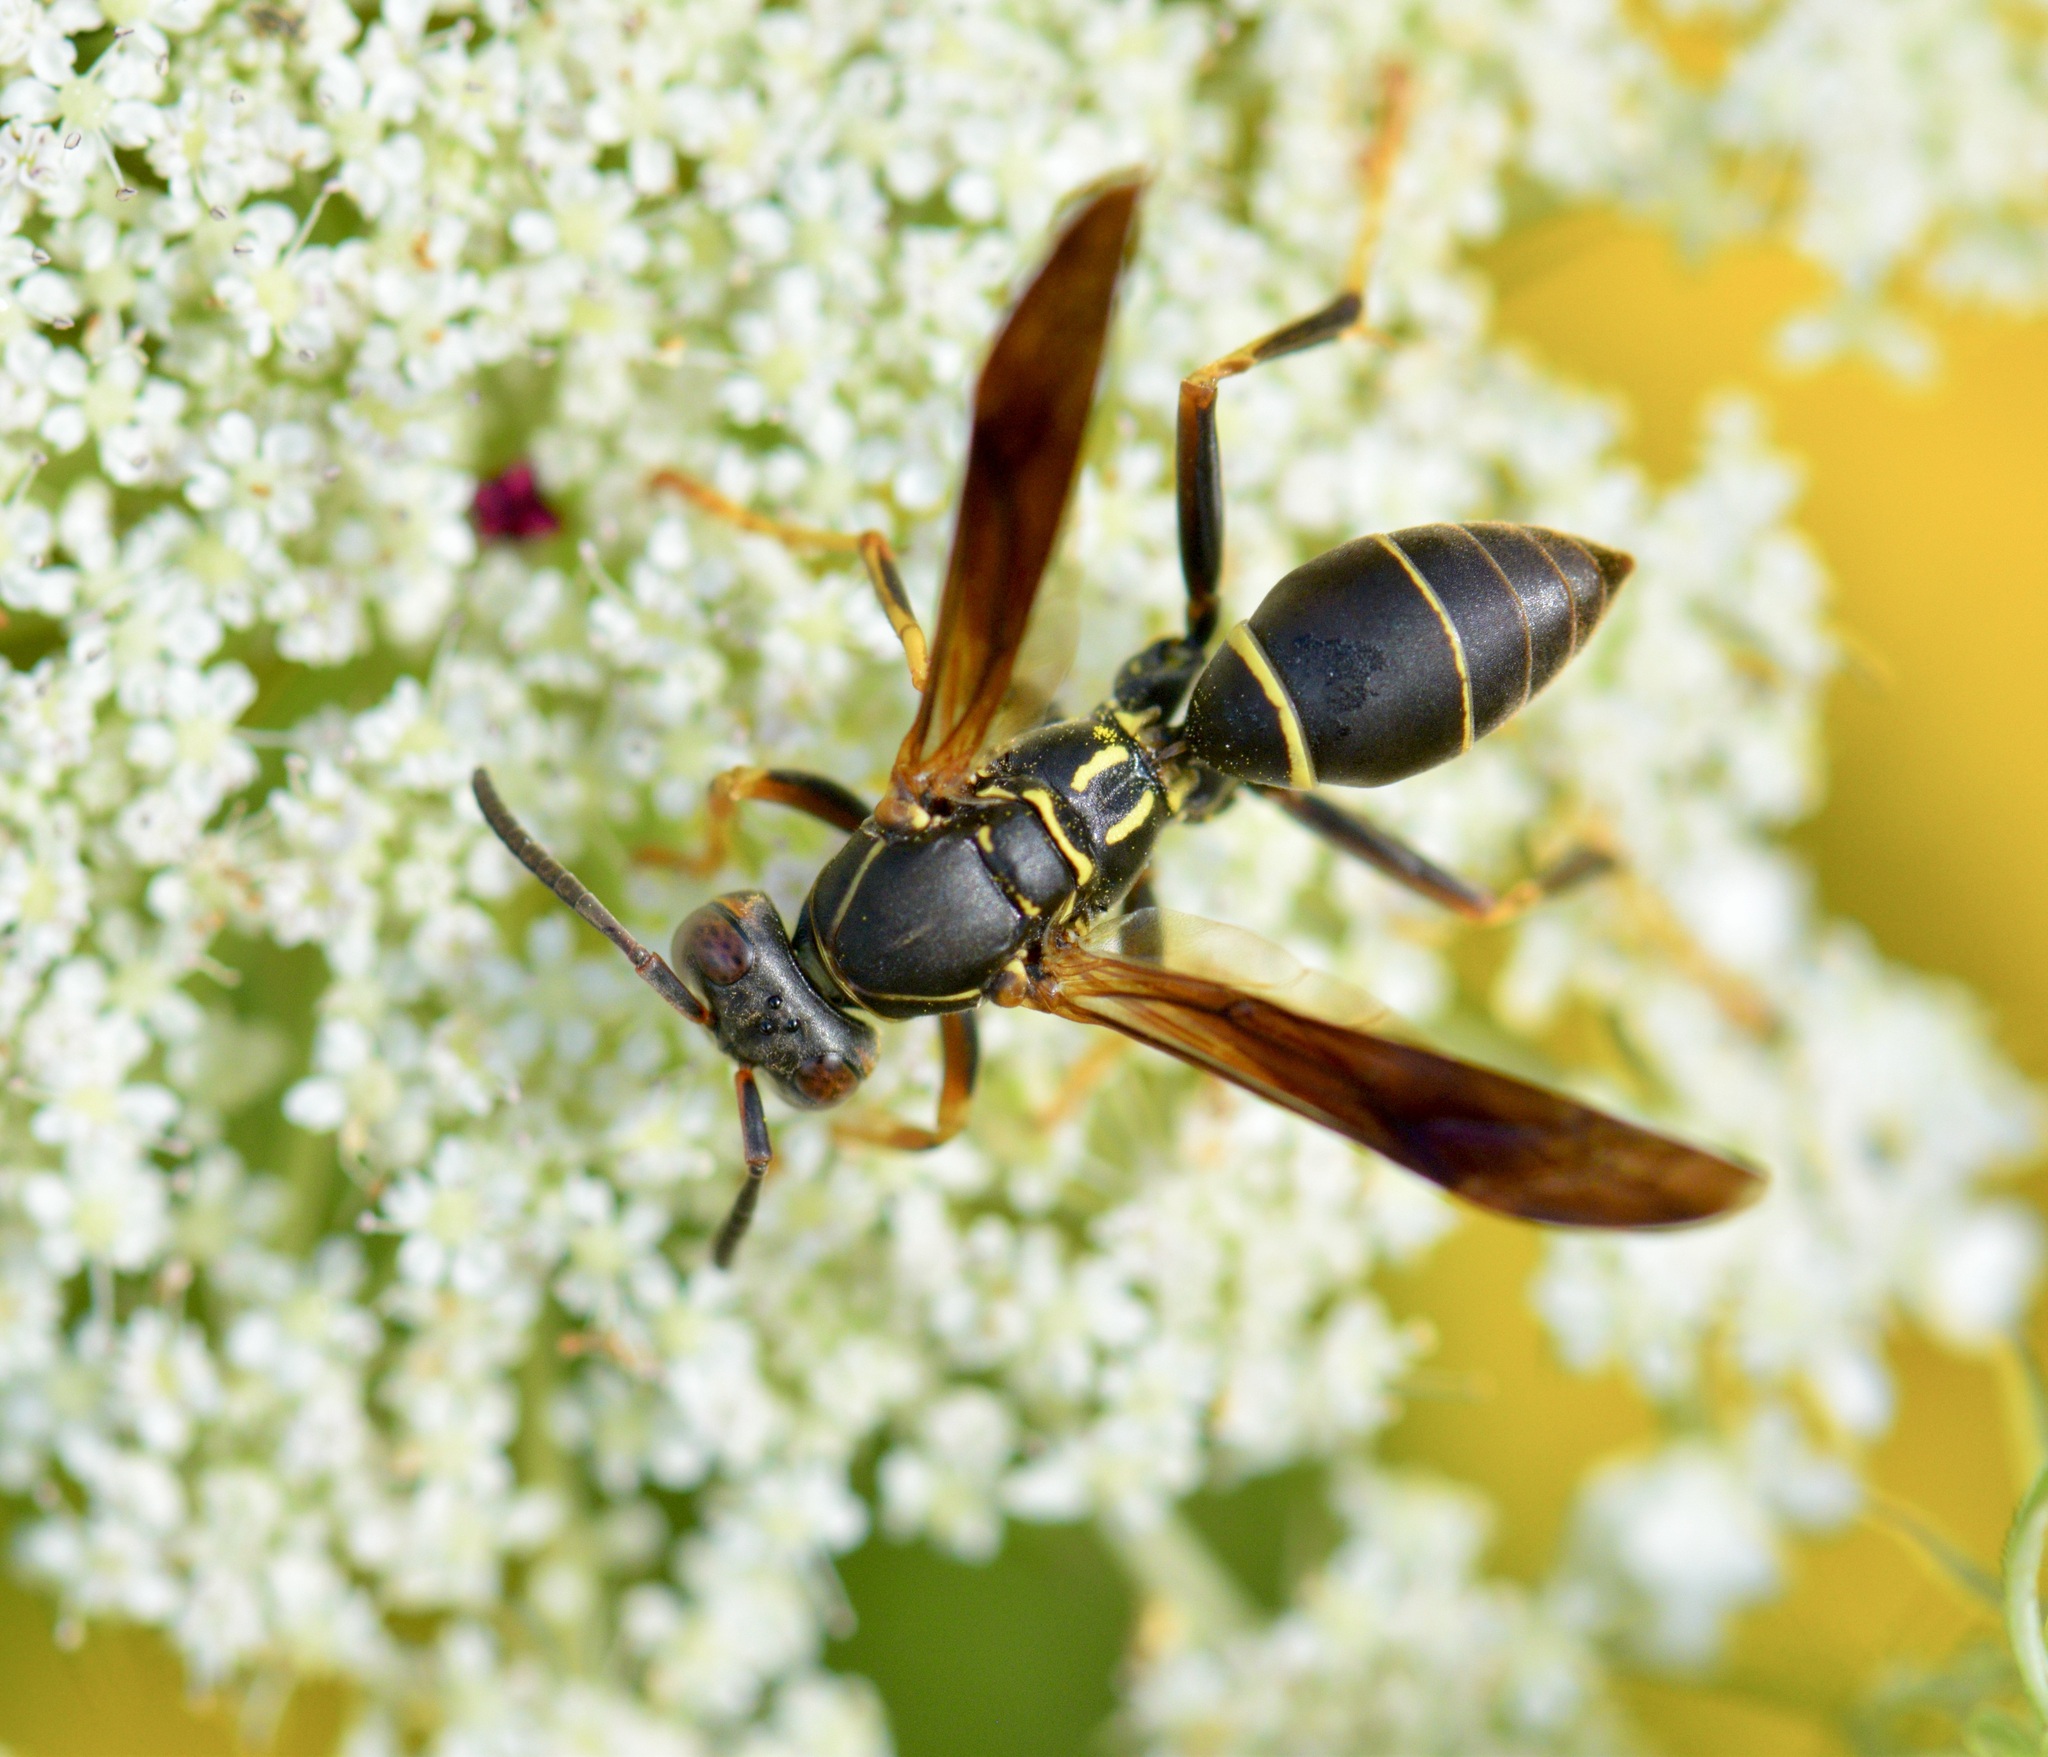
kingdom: Animalia
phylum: Arthropoda
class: Insecta
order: Hymenoptera
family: Eumenidae
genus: Polistes
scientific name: Polistes fuscatus
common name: Dark paper wasp
